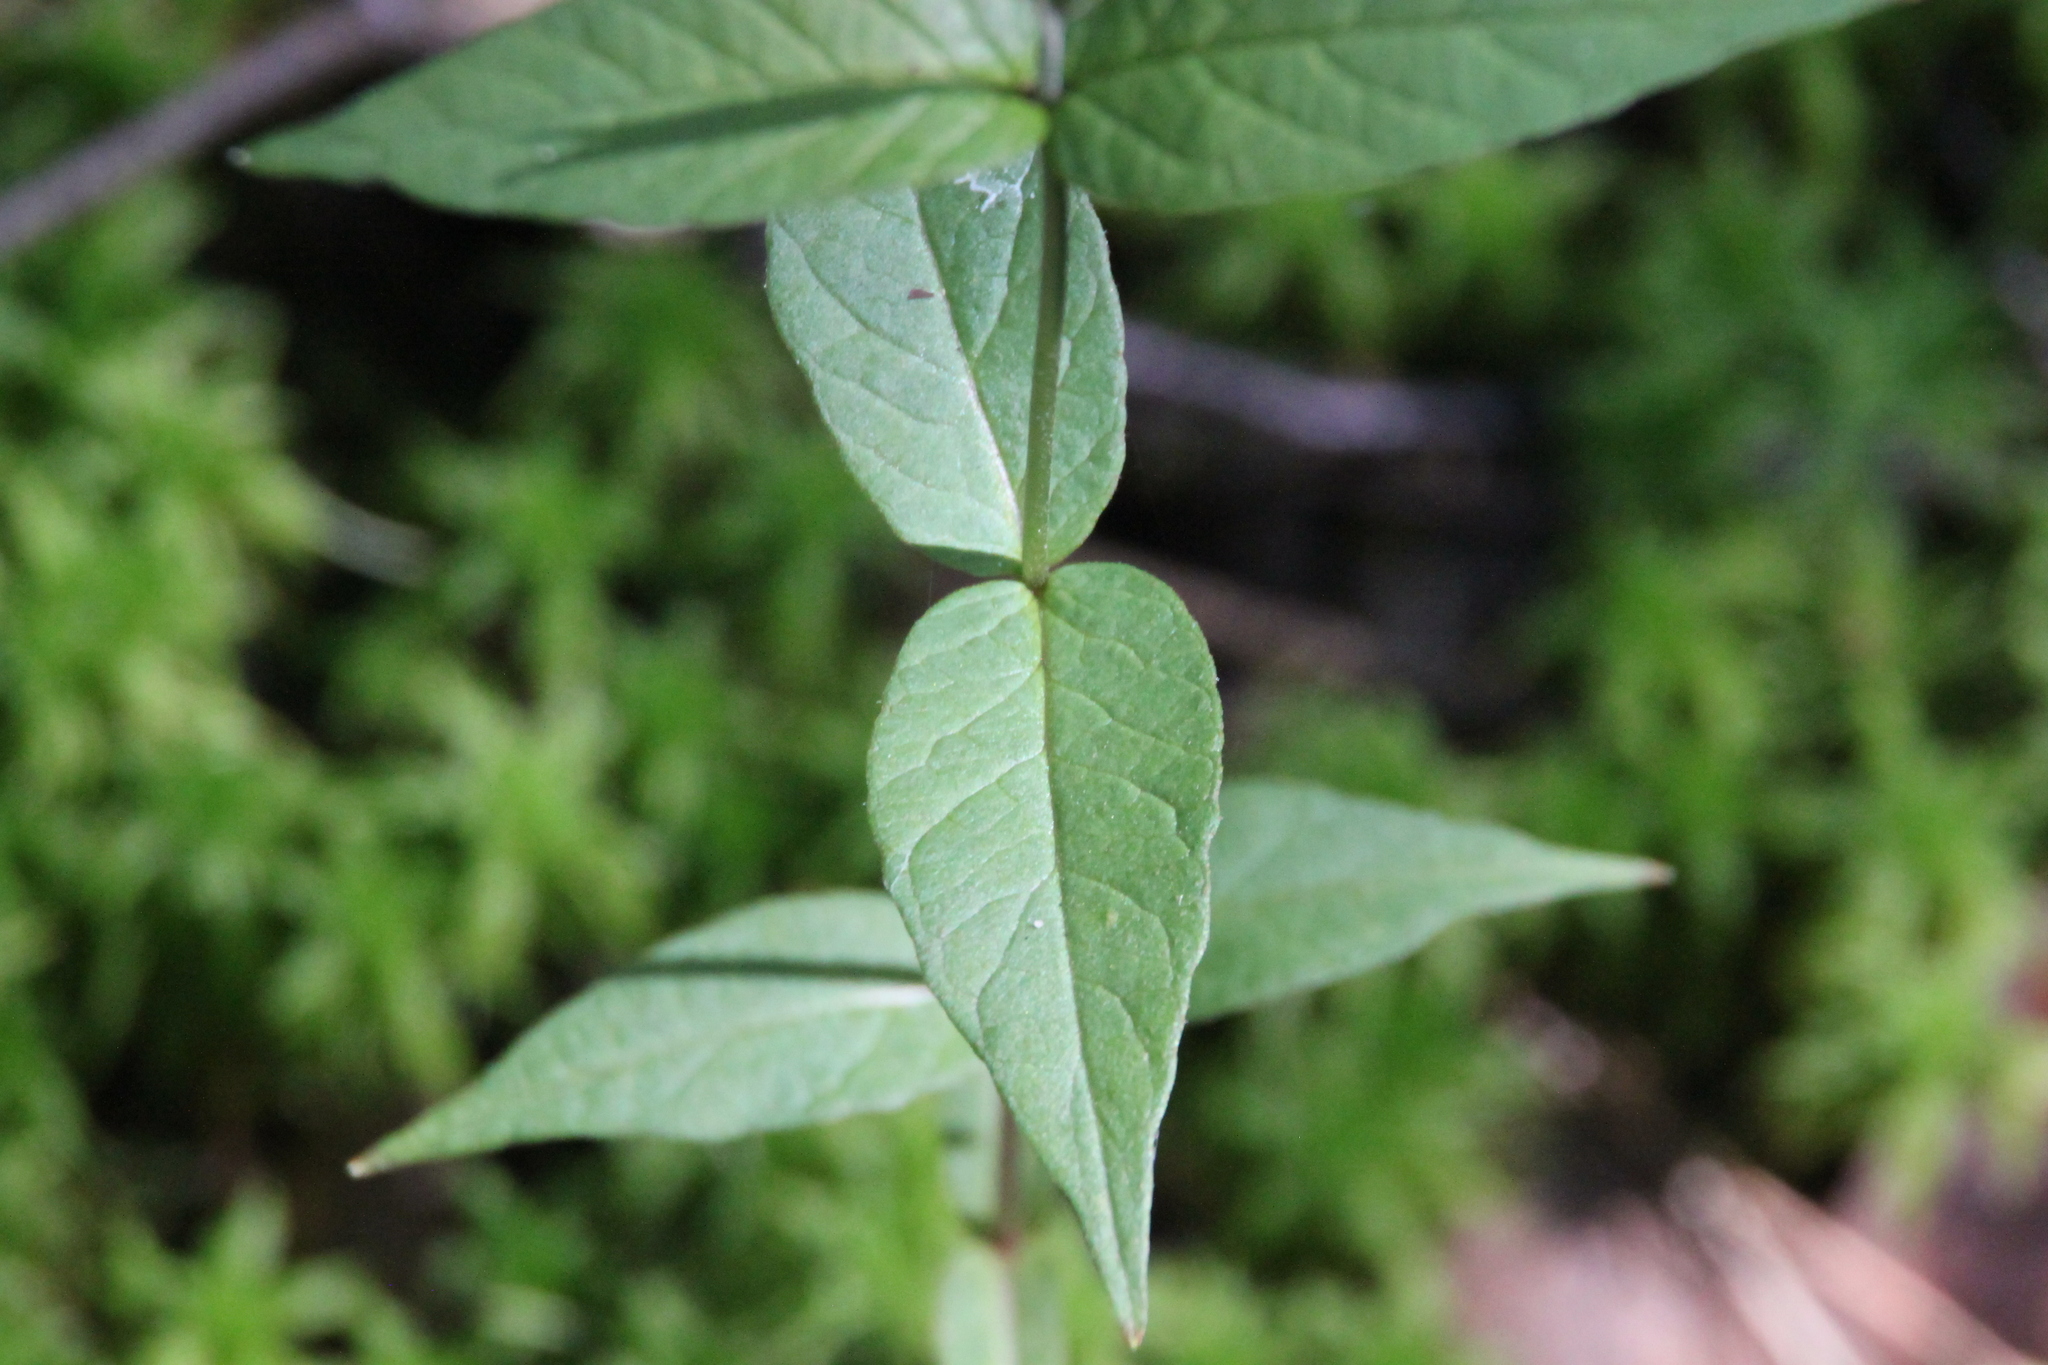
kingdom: Plantae
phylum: Tracheophyta
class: Magnoliopsida
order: Ericales
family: Primulaceae
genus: Lysimachia
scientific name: Lysimachia vulgaris
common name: Yellow loosestrife
